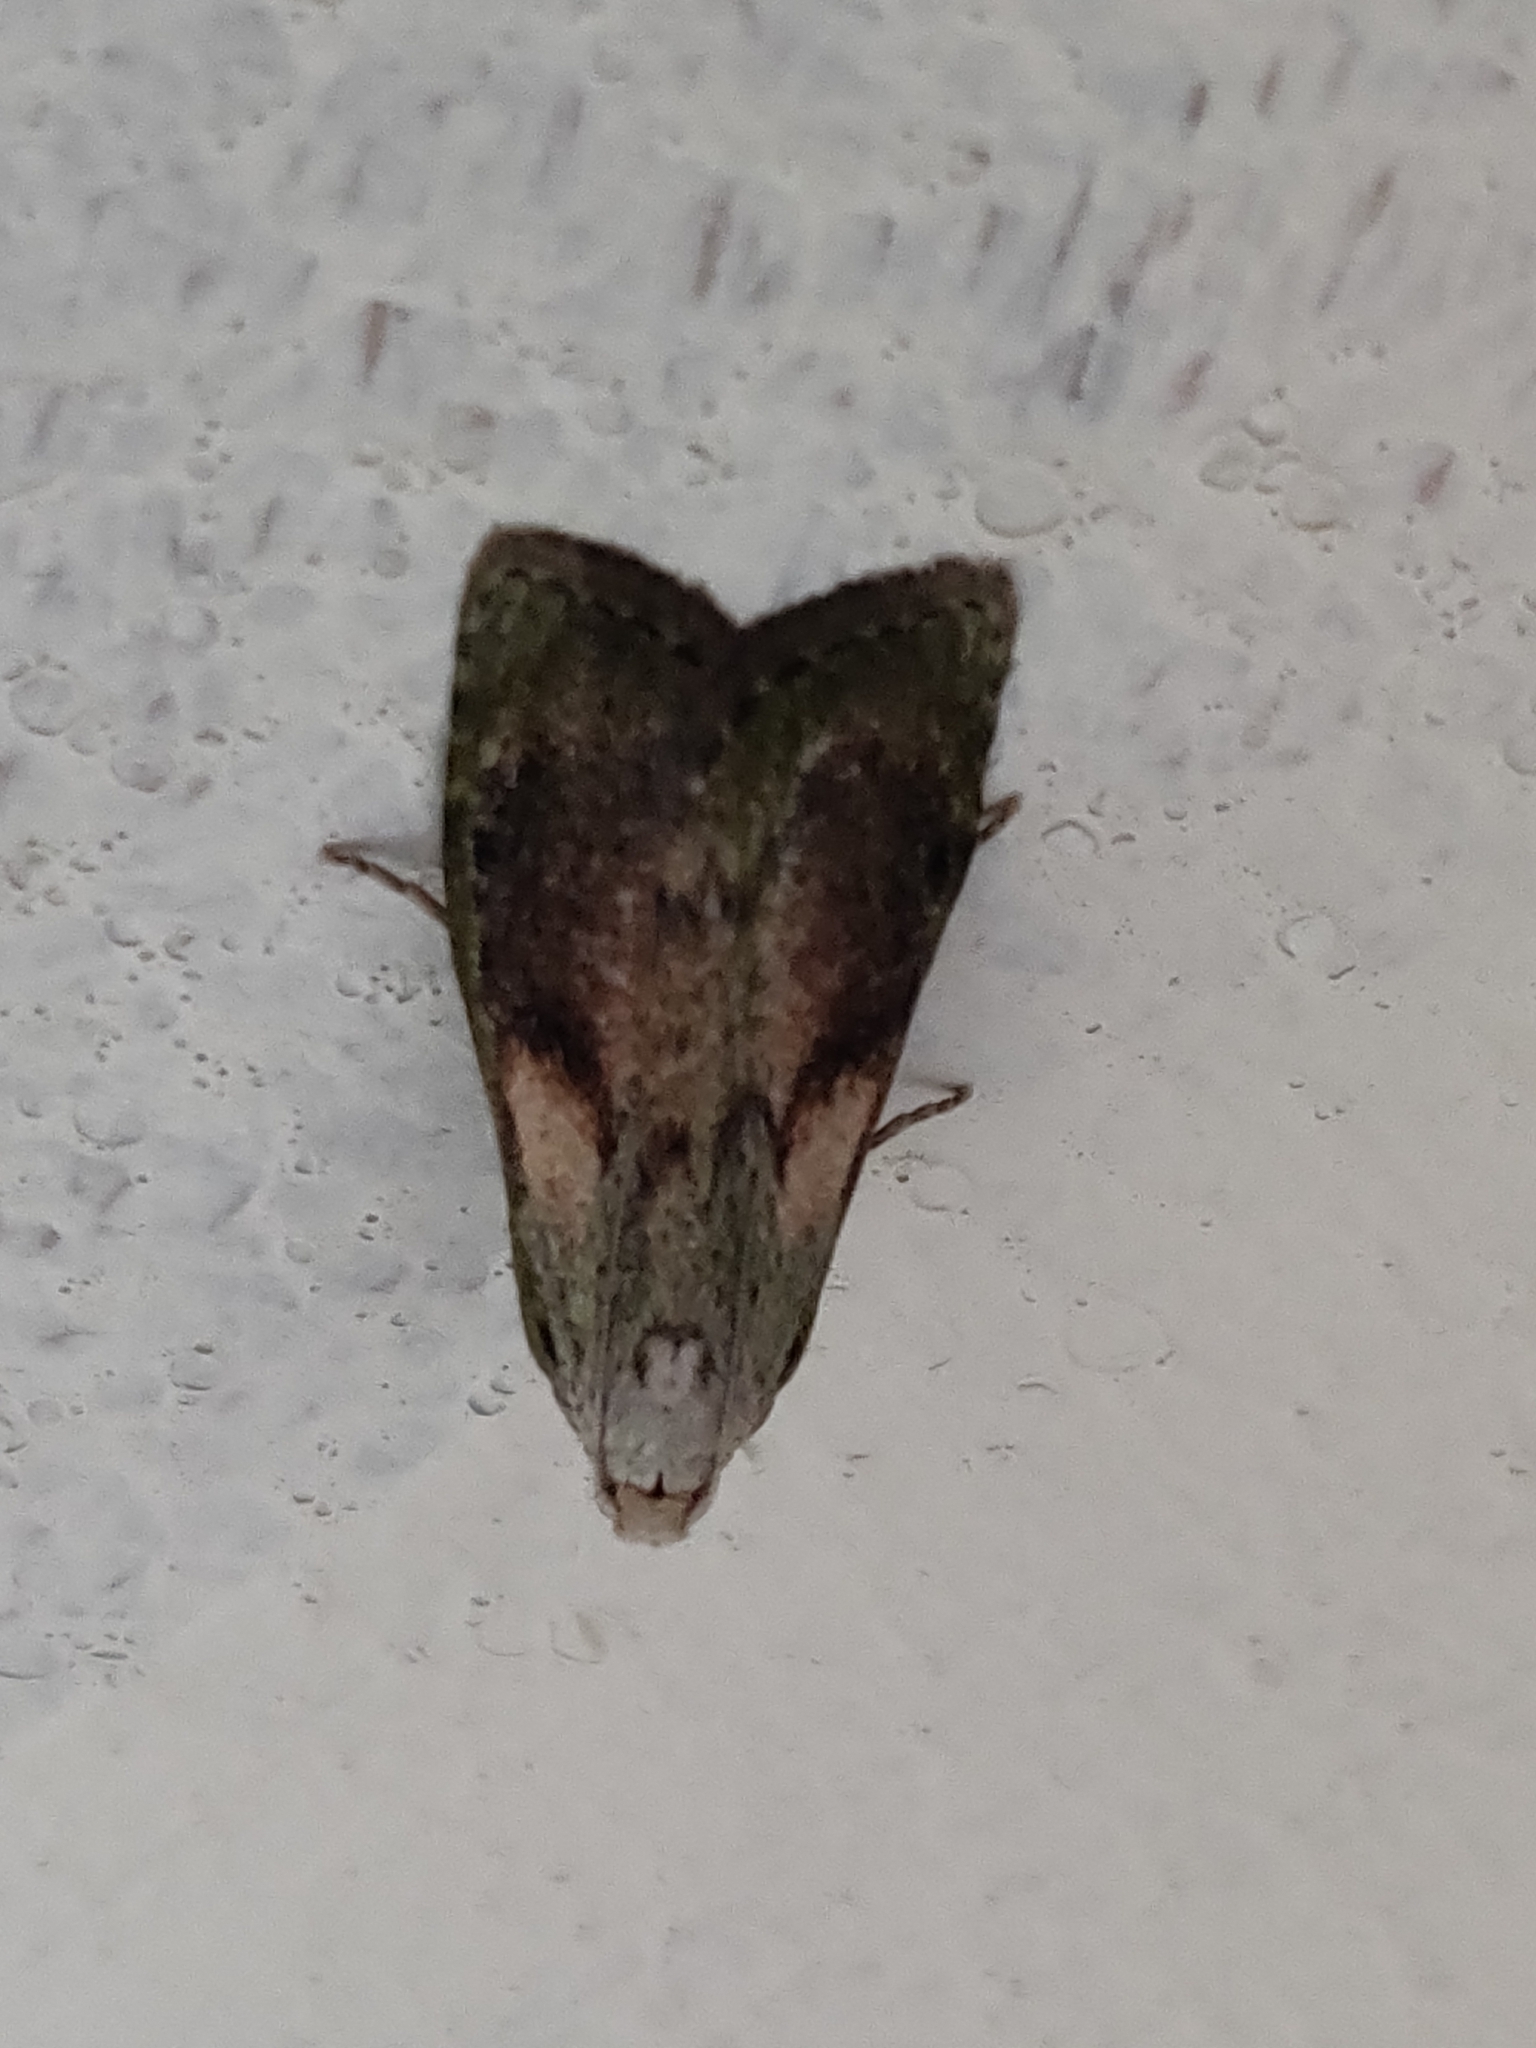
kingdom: Animalia
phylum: Arthropoda
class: Insecta
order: Lepidoptera
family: Pyralidae
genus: Aphomia
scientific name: Aphomia sociella
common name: Bee moth
